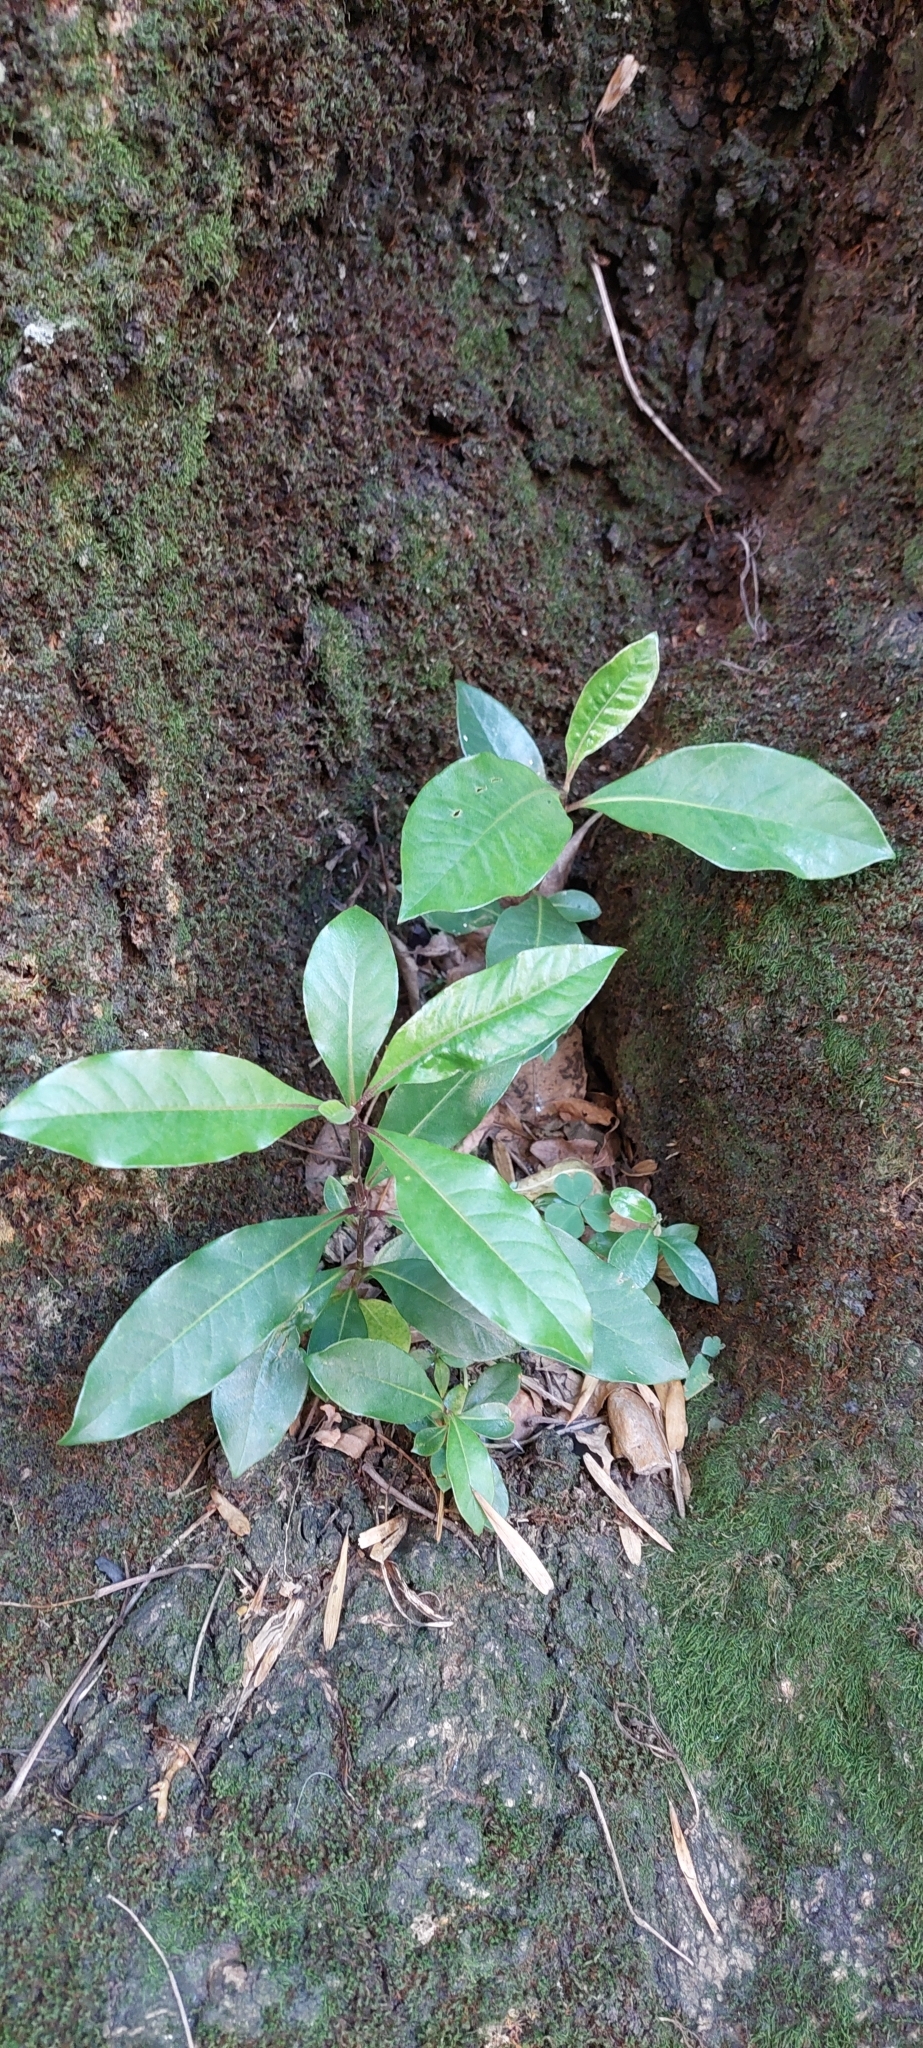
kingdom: Plantae
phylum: Tracheophyta
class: Magnoliopsida
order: Apiales
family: Pittosporaceae
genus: Pittosporum
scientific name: Pittosporum undulatum
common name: Australian cheesewood
